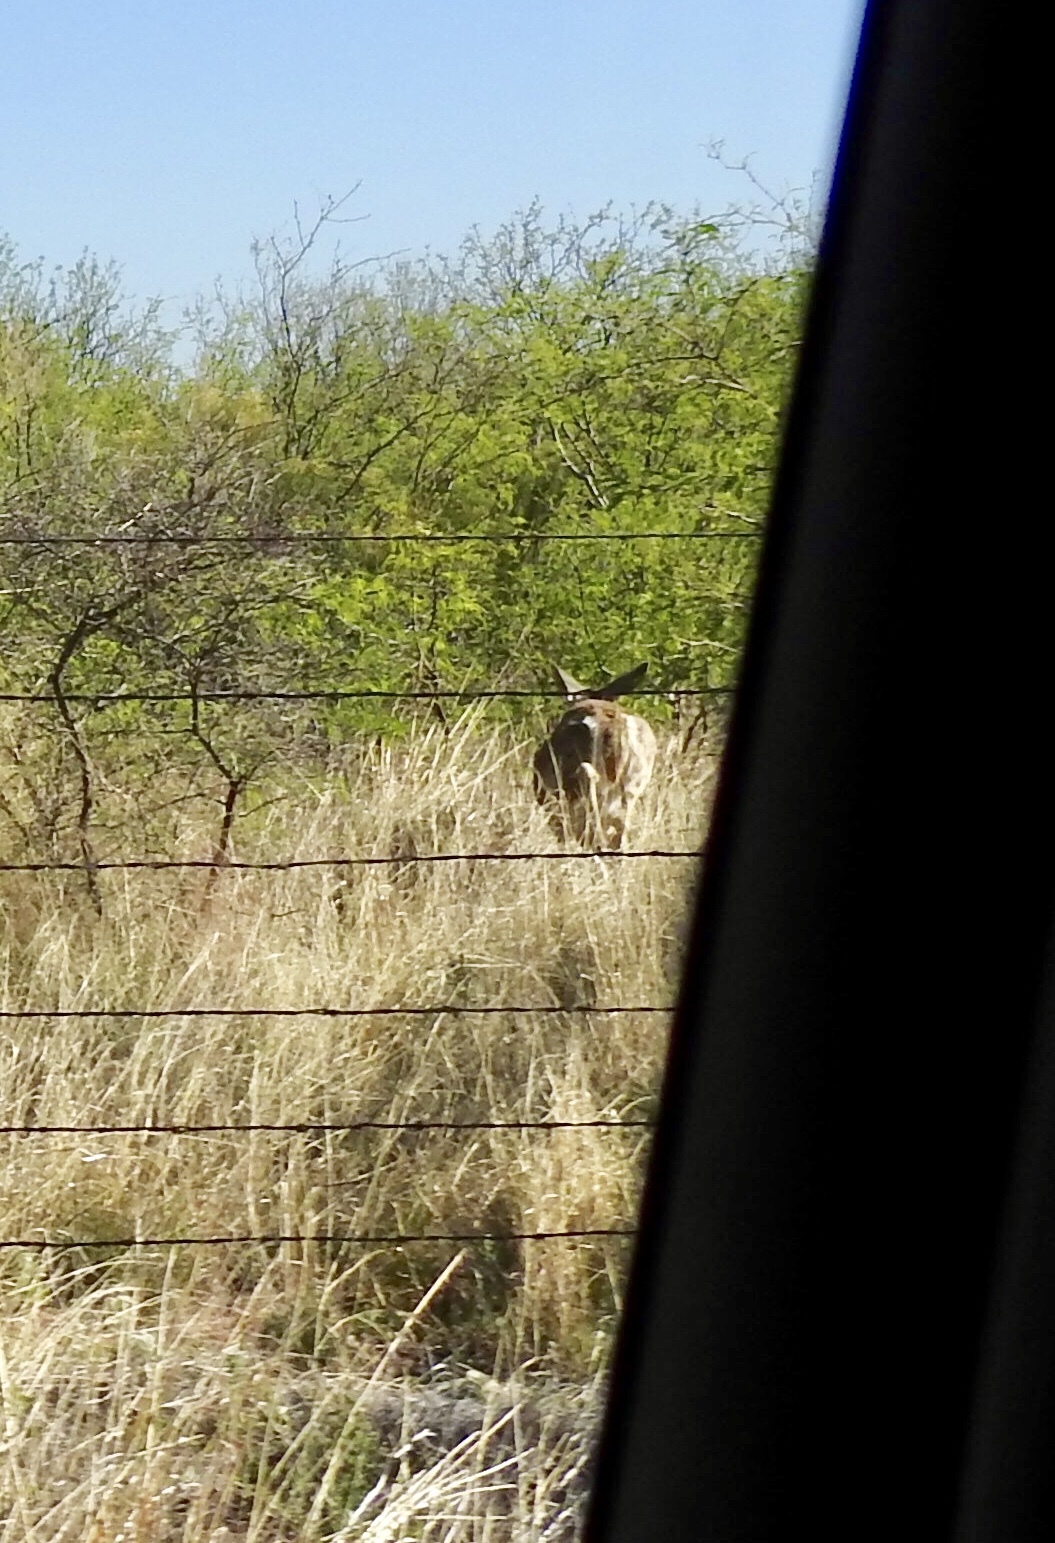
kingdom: Animalia
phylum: Chordata
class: Mammalia
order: Artiodactyla
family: Cervidae
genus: Odocoileus
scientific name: Odocoileus virginianus
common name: White-tailed deer
